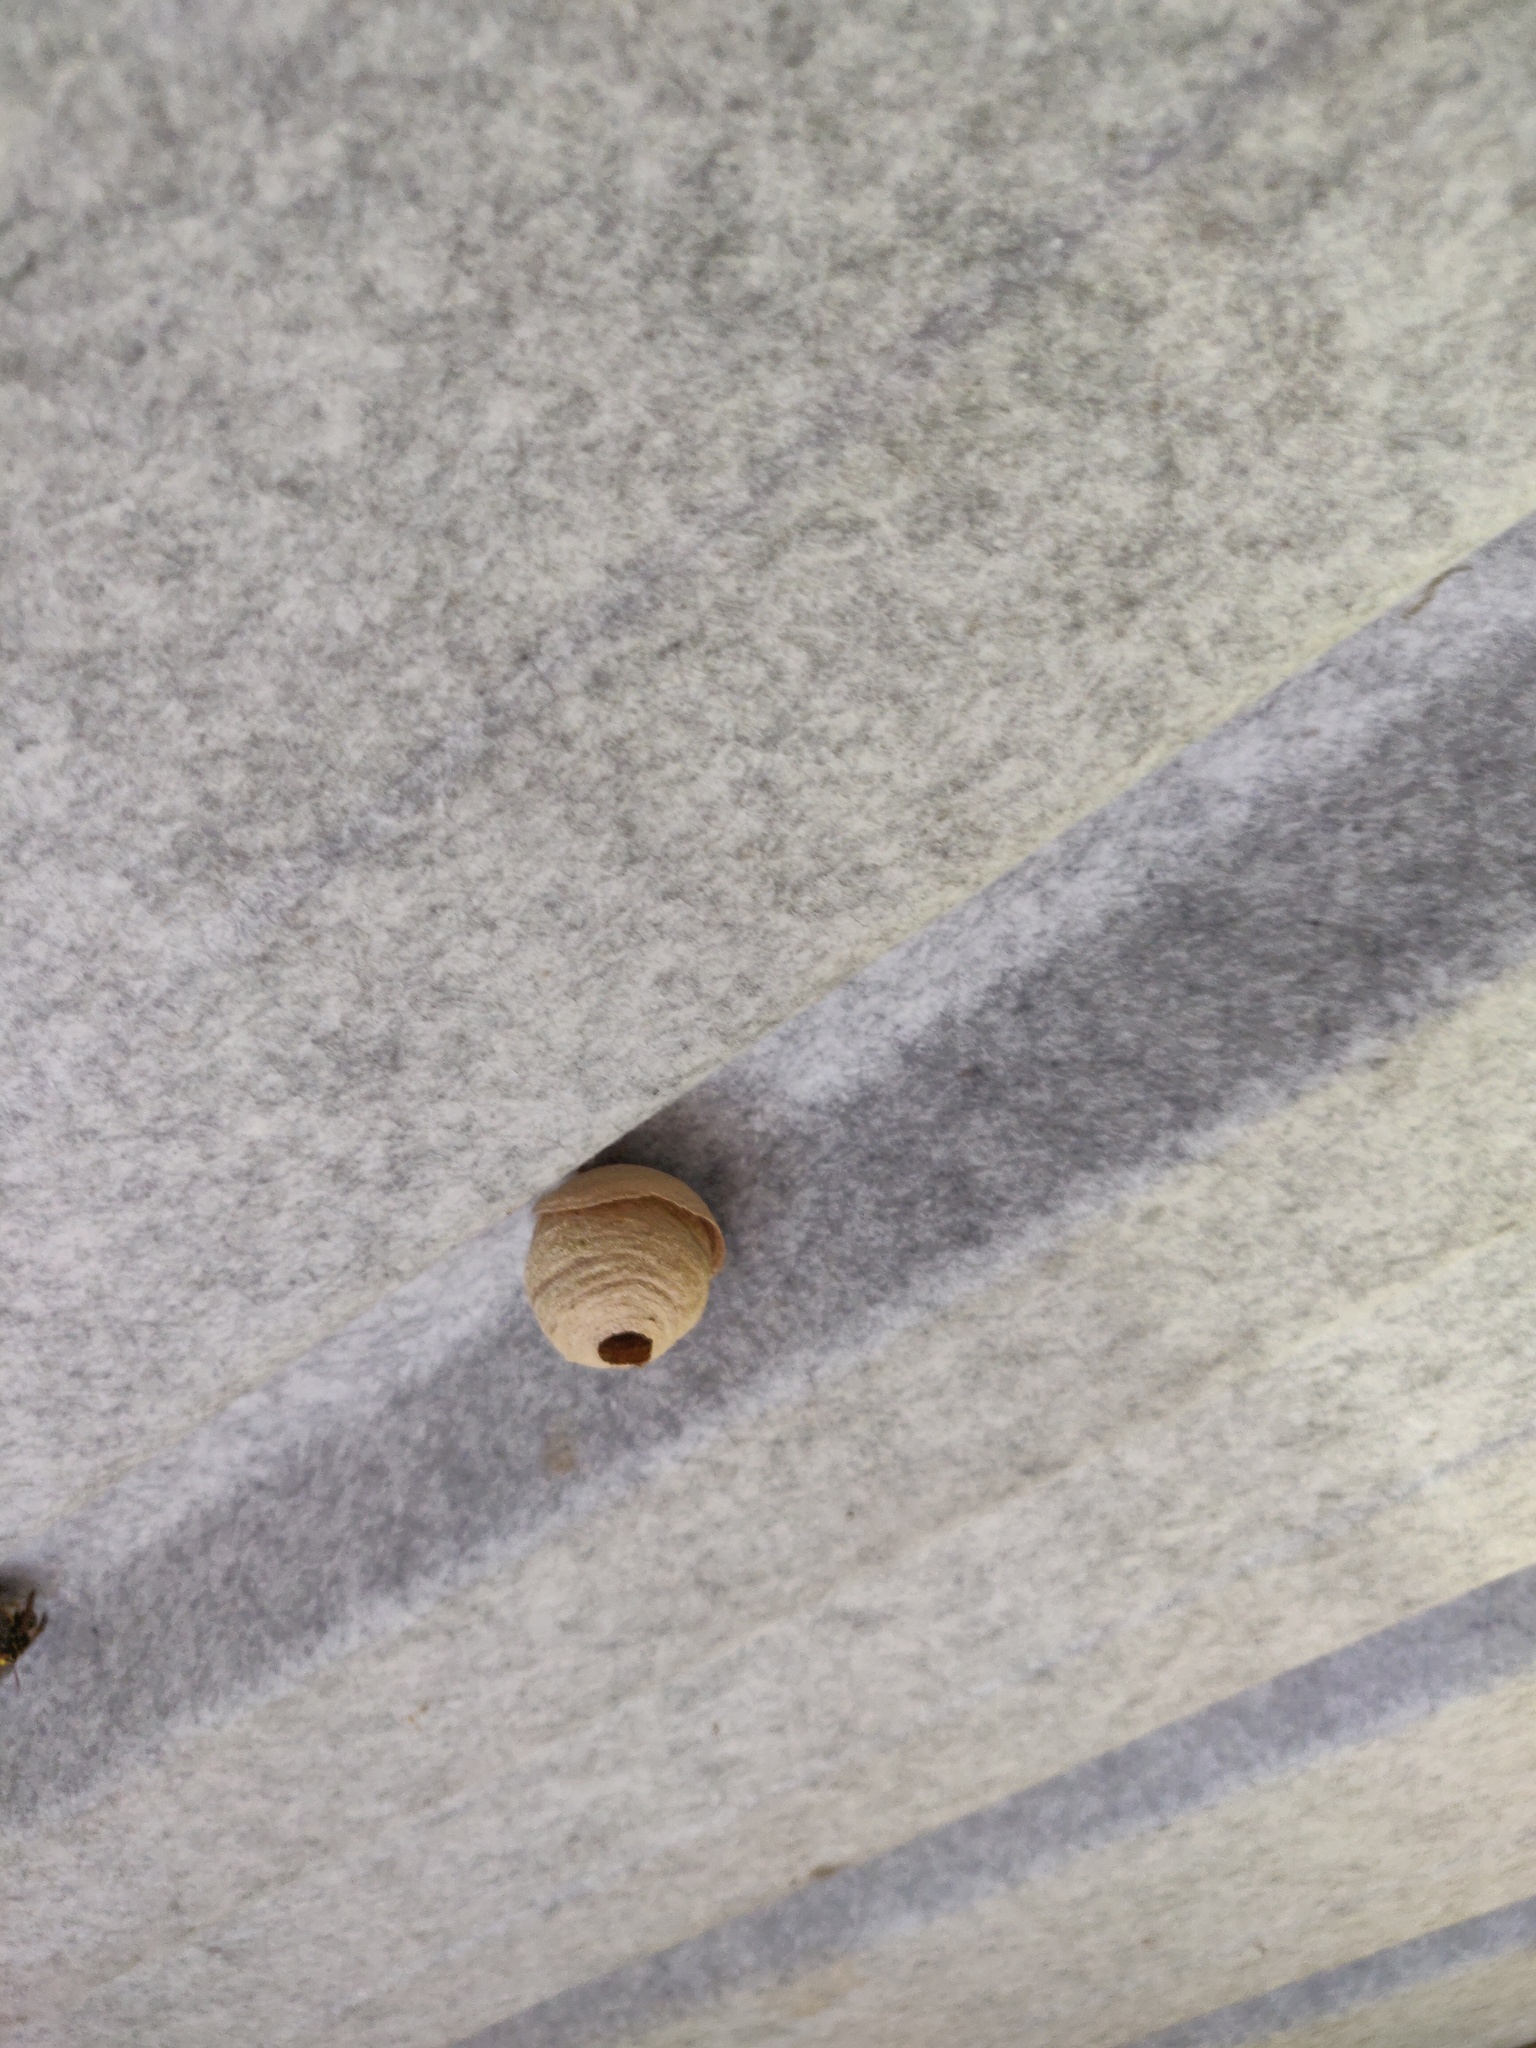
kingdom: Animalia
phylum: Arthropoda
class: Insecta
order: Hymenoptera
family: Vespidae
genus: Vespa
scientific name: Vespa crabro
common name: Hornet
